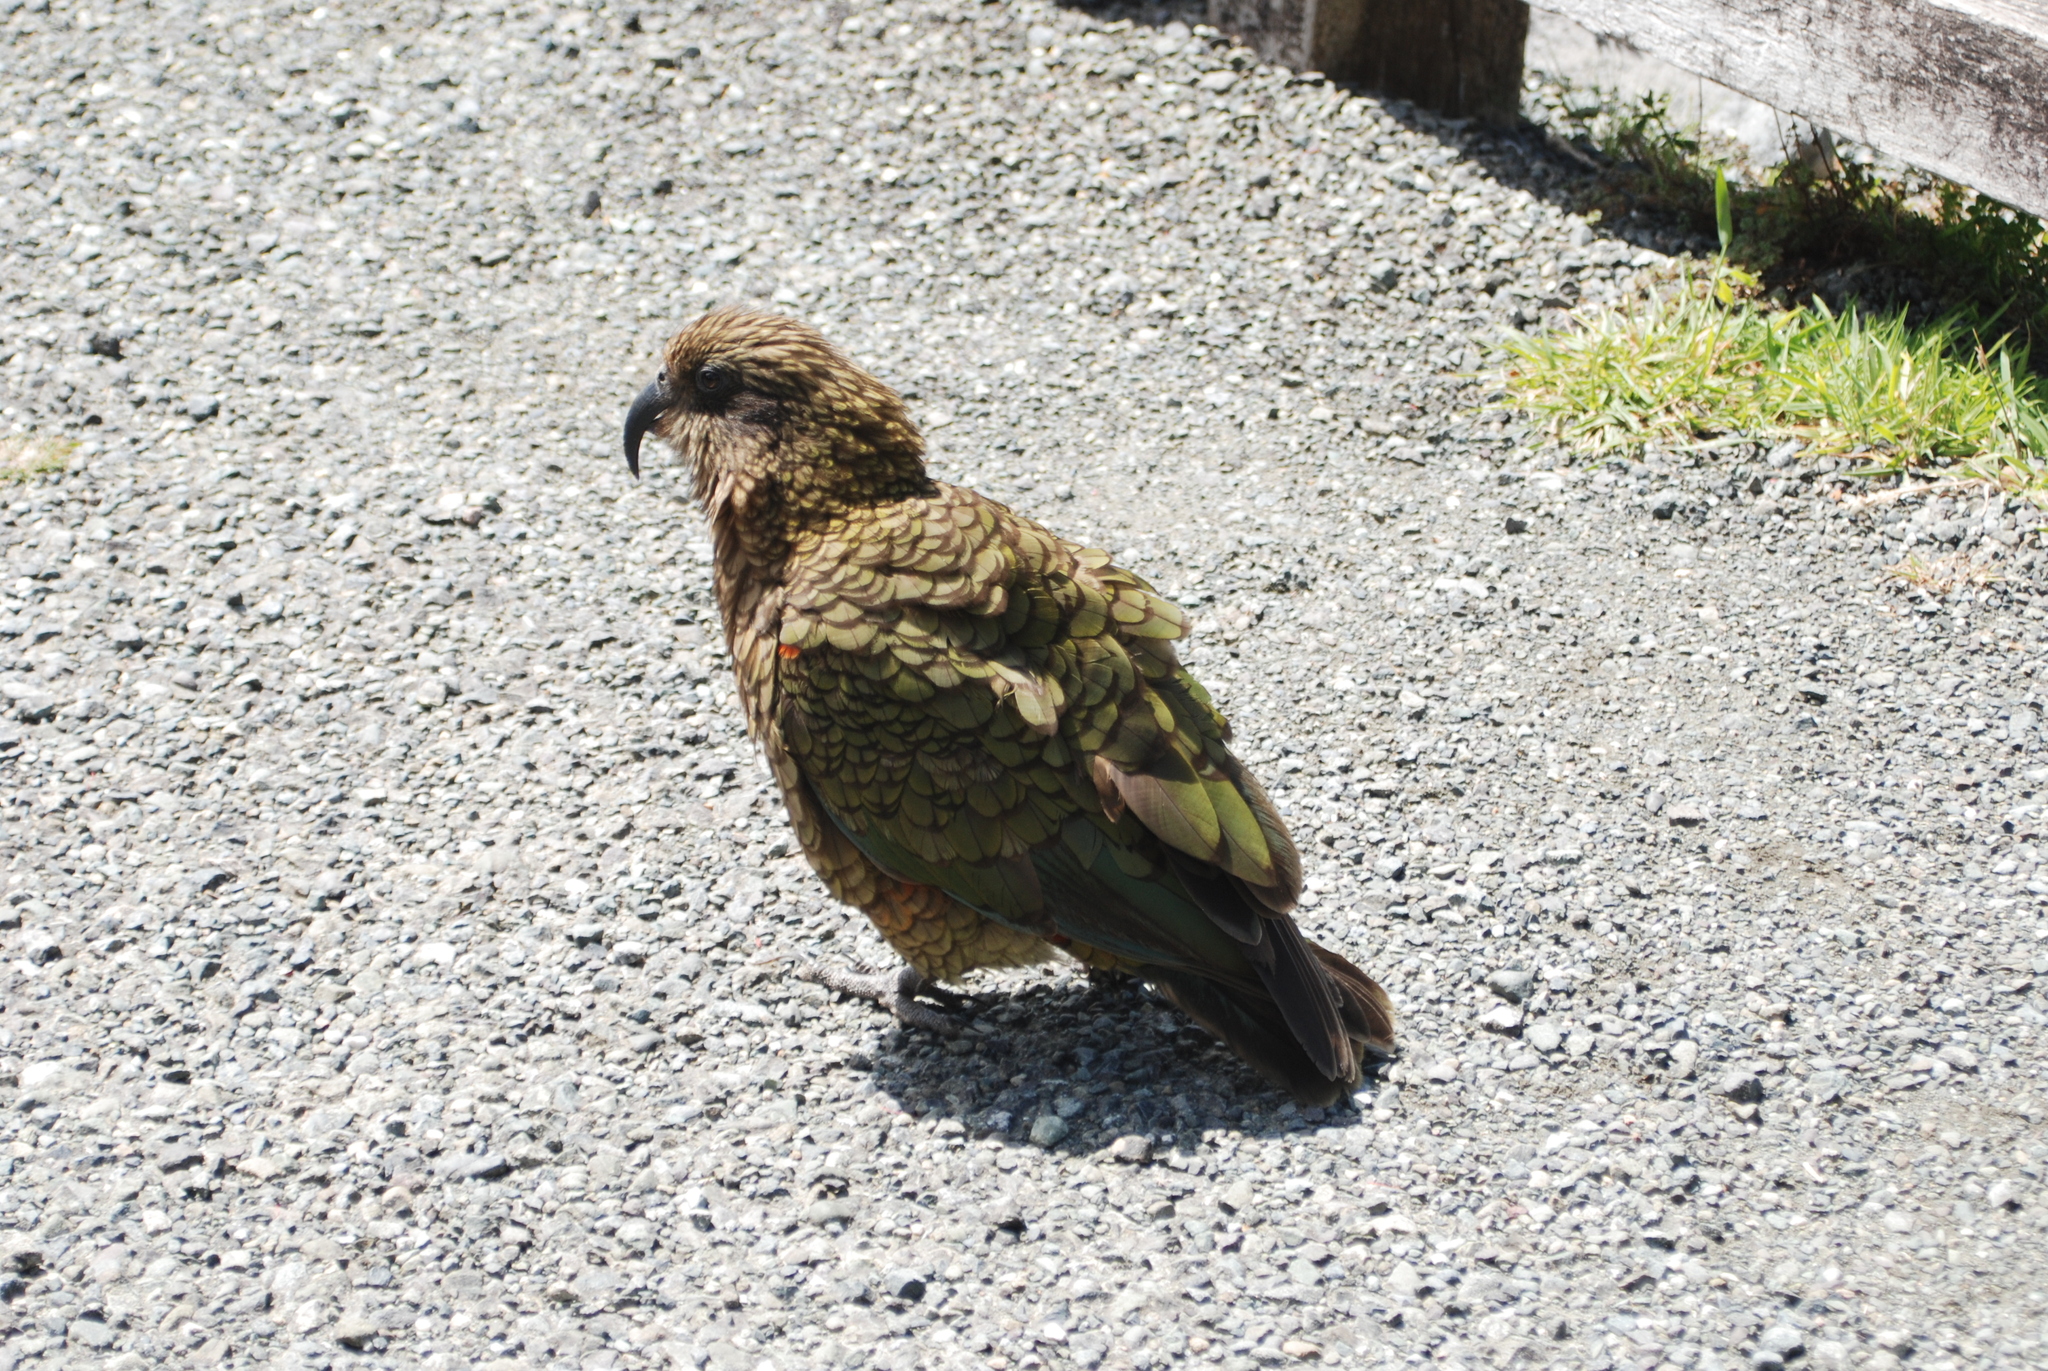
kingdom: Animalia
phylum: Chordata
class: Aves
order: Psittaciformes
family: Psittacidae
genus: Nestor
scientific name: Nestor notabilis
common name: Kea
